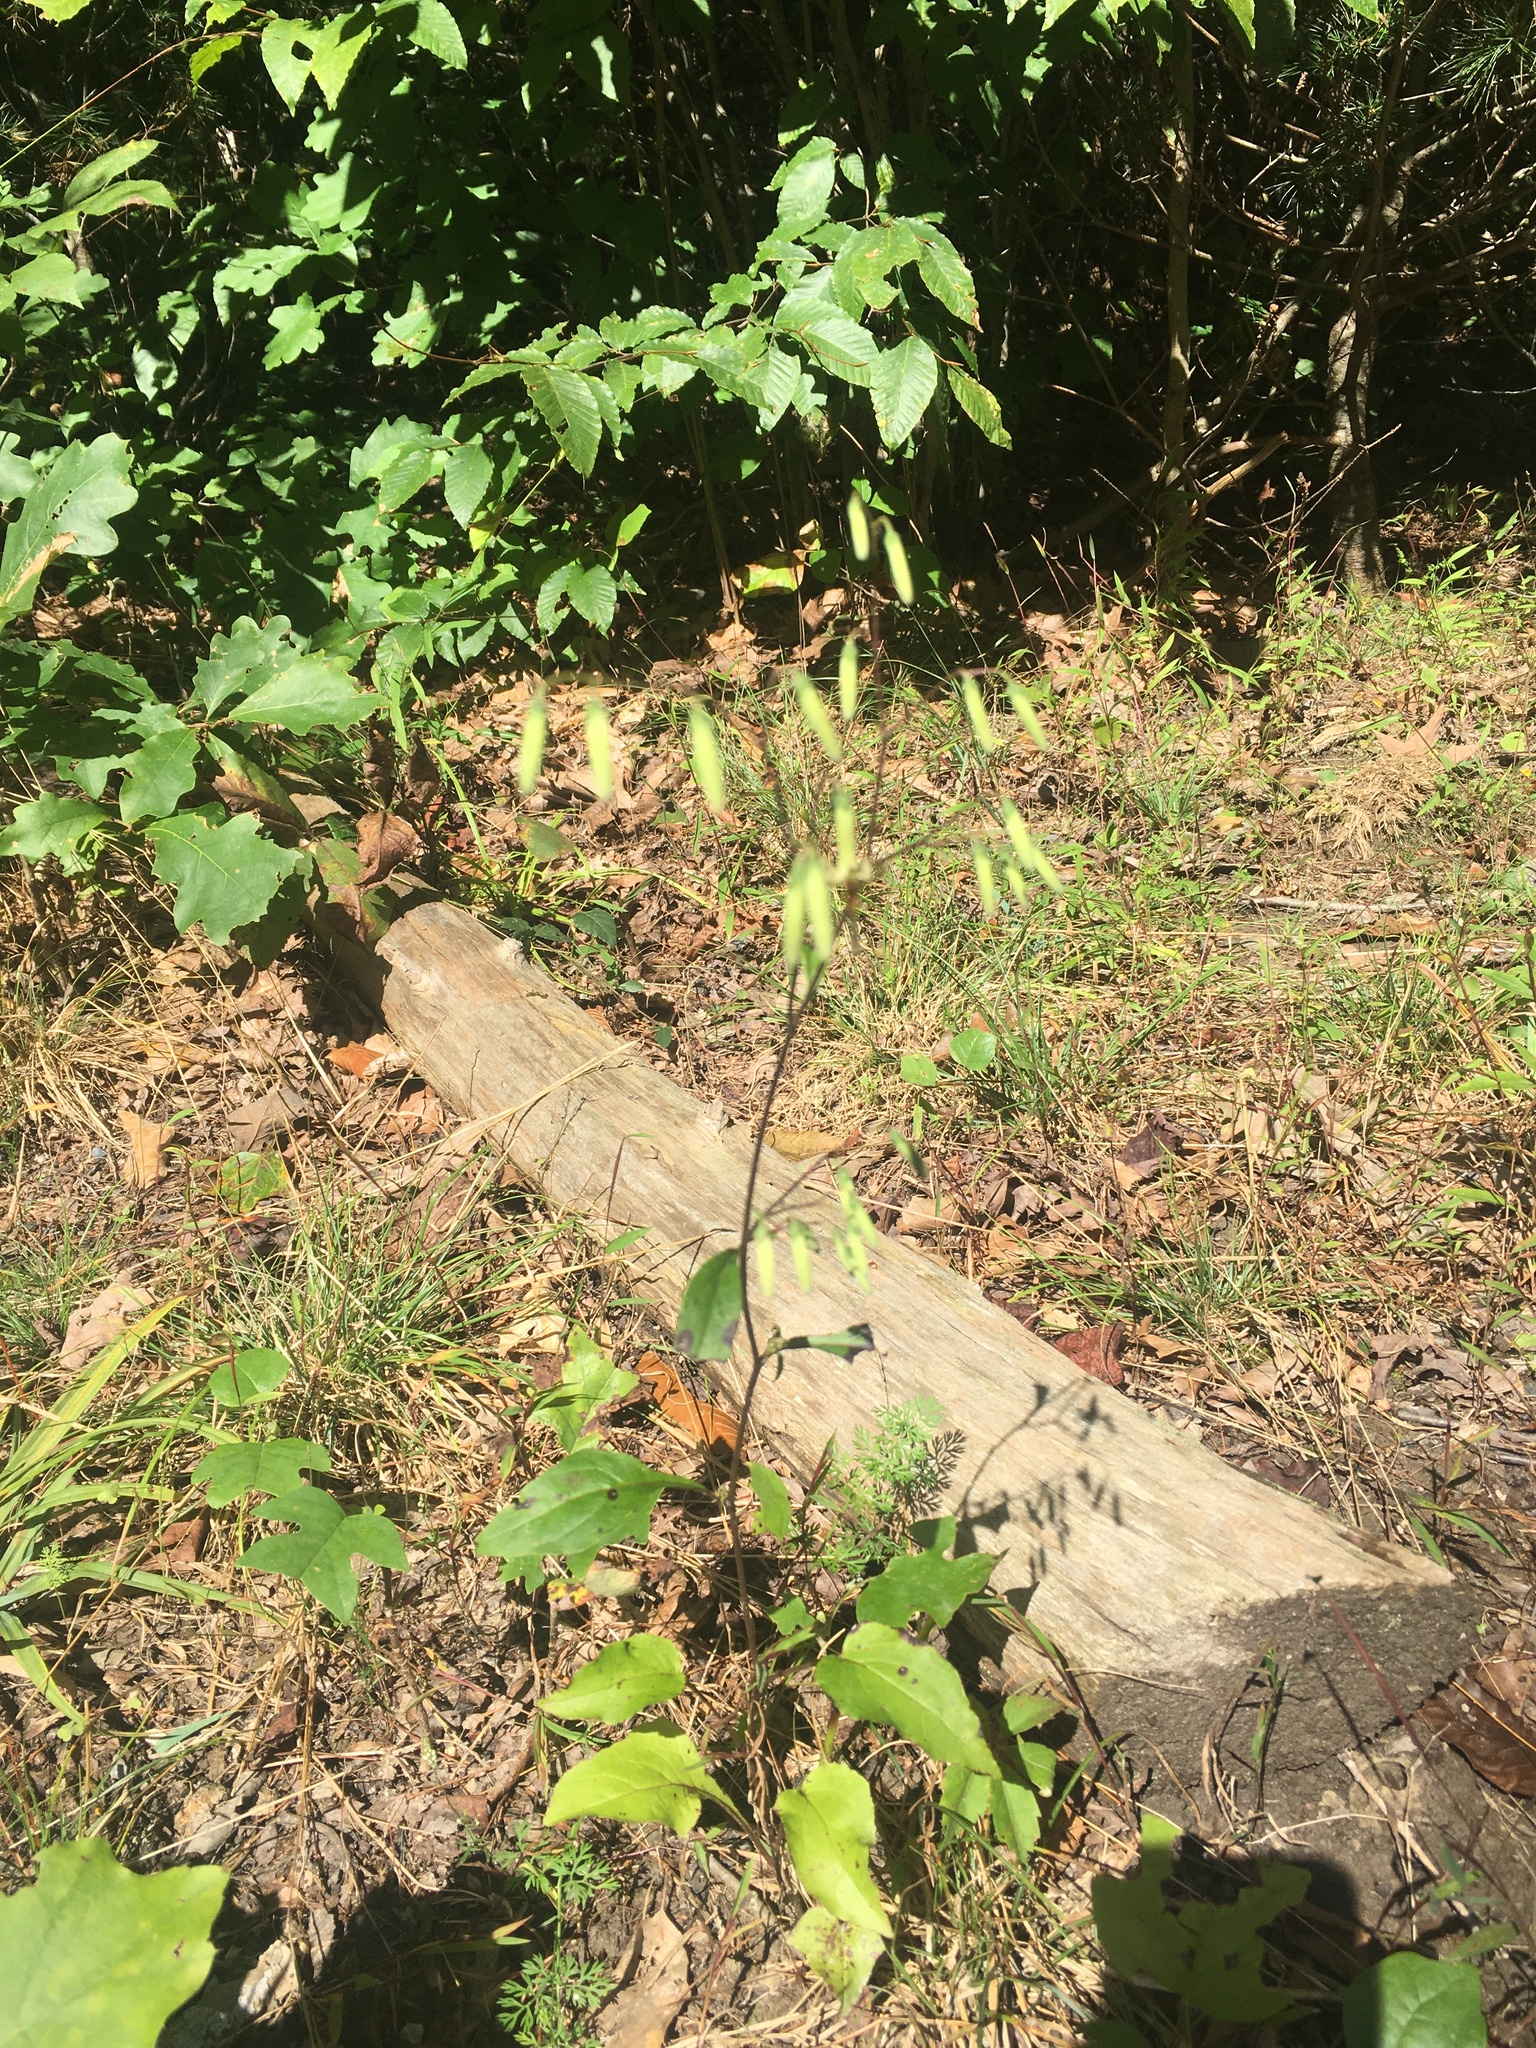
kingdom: Plantae
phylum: Tracheophyta
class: Magnoliopsida
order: Asterales
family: Asteraceae
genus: Nabalus
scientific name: Nabalus altissima
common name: Tall rattlesnakeroot
